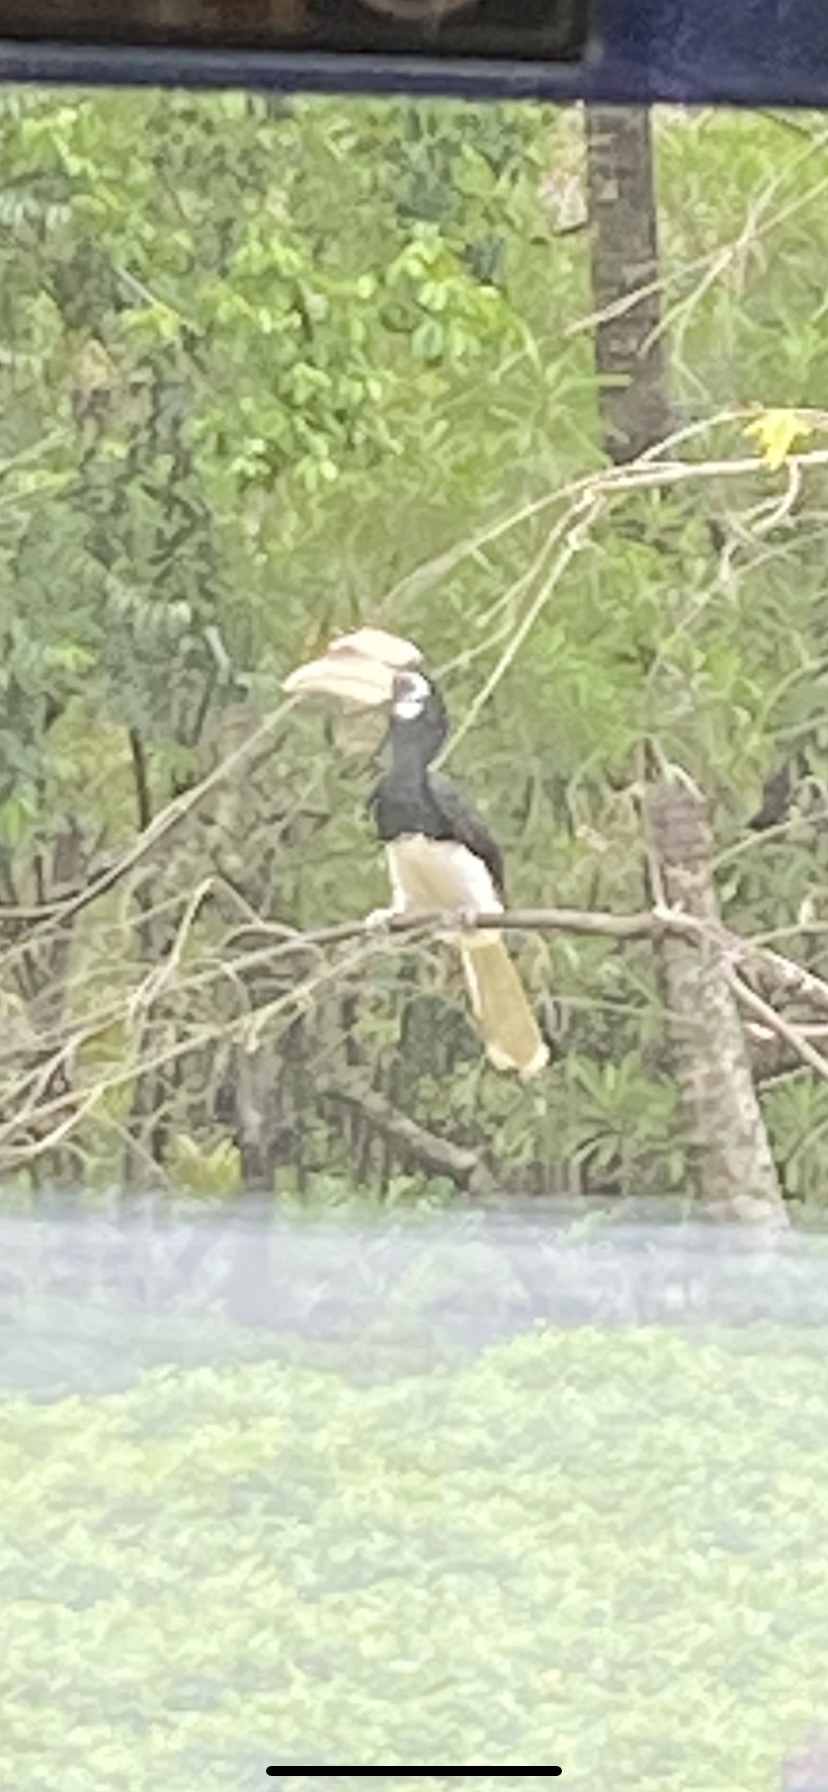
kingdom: Animalia
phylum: Chordata
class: Aves
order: Bucerotiformes
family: Bucerotidae
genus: Anthracoceros
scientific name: Anthracoceros albirostris
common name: Oriental pied-hornbill
